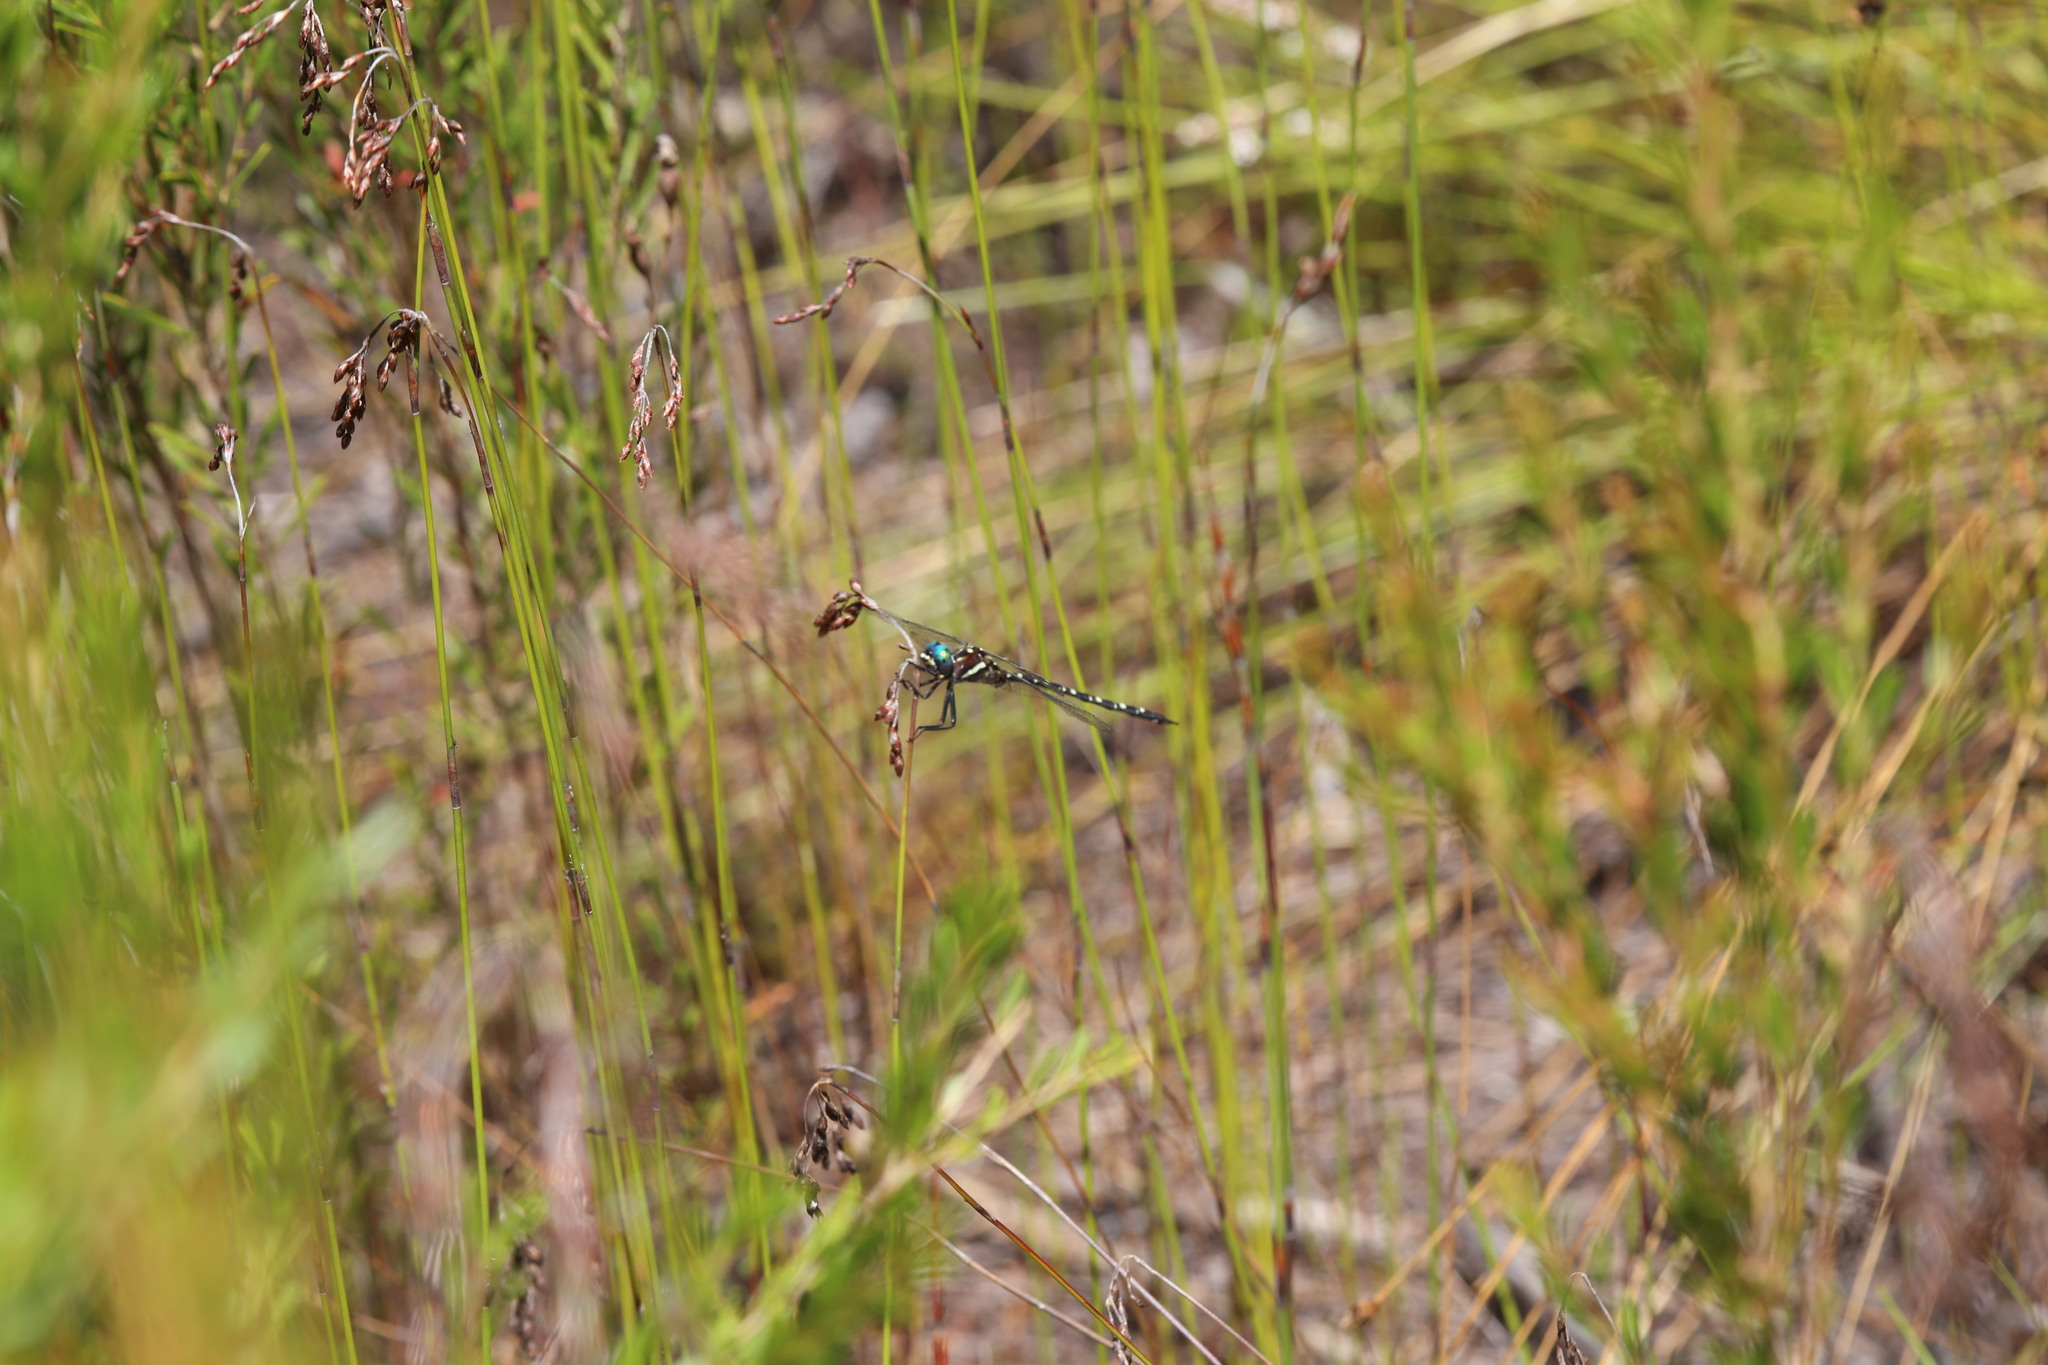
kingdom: Animalia
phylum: Arthropoda
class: Insecta
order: Odonata
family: Synthemistidae
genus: Archaeosynthemis
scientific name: Archaeosynthemis leachii
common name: Twinspot tigertail
